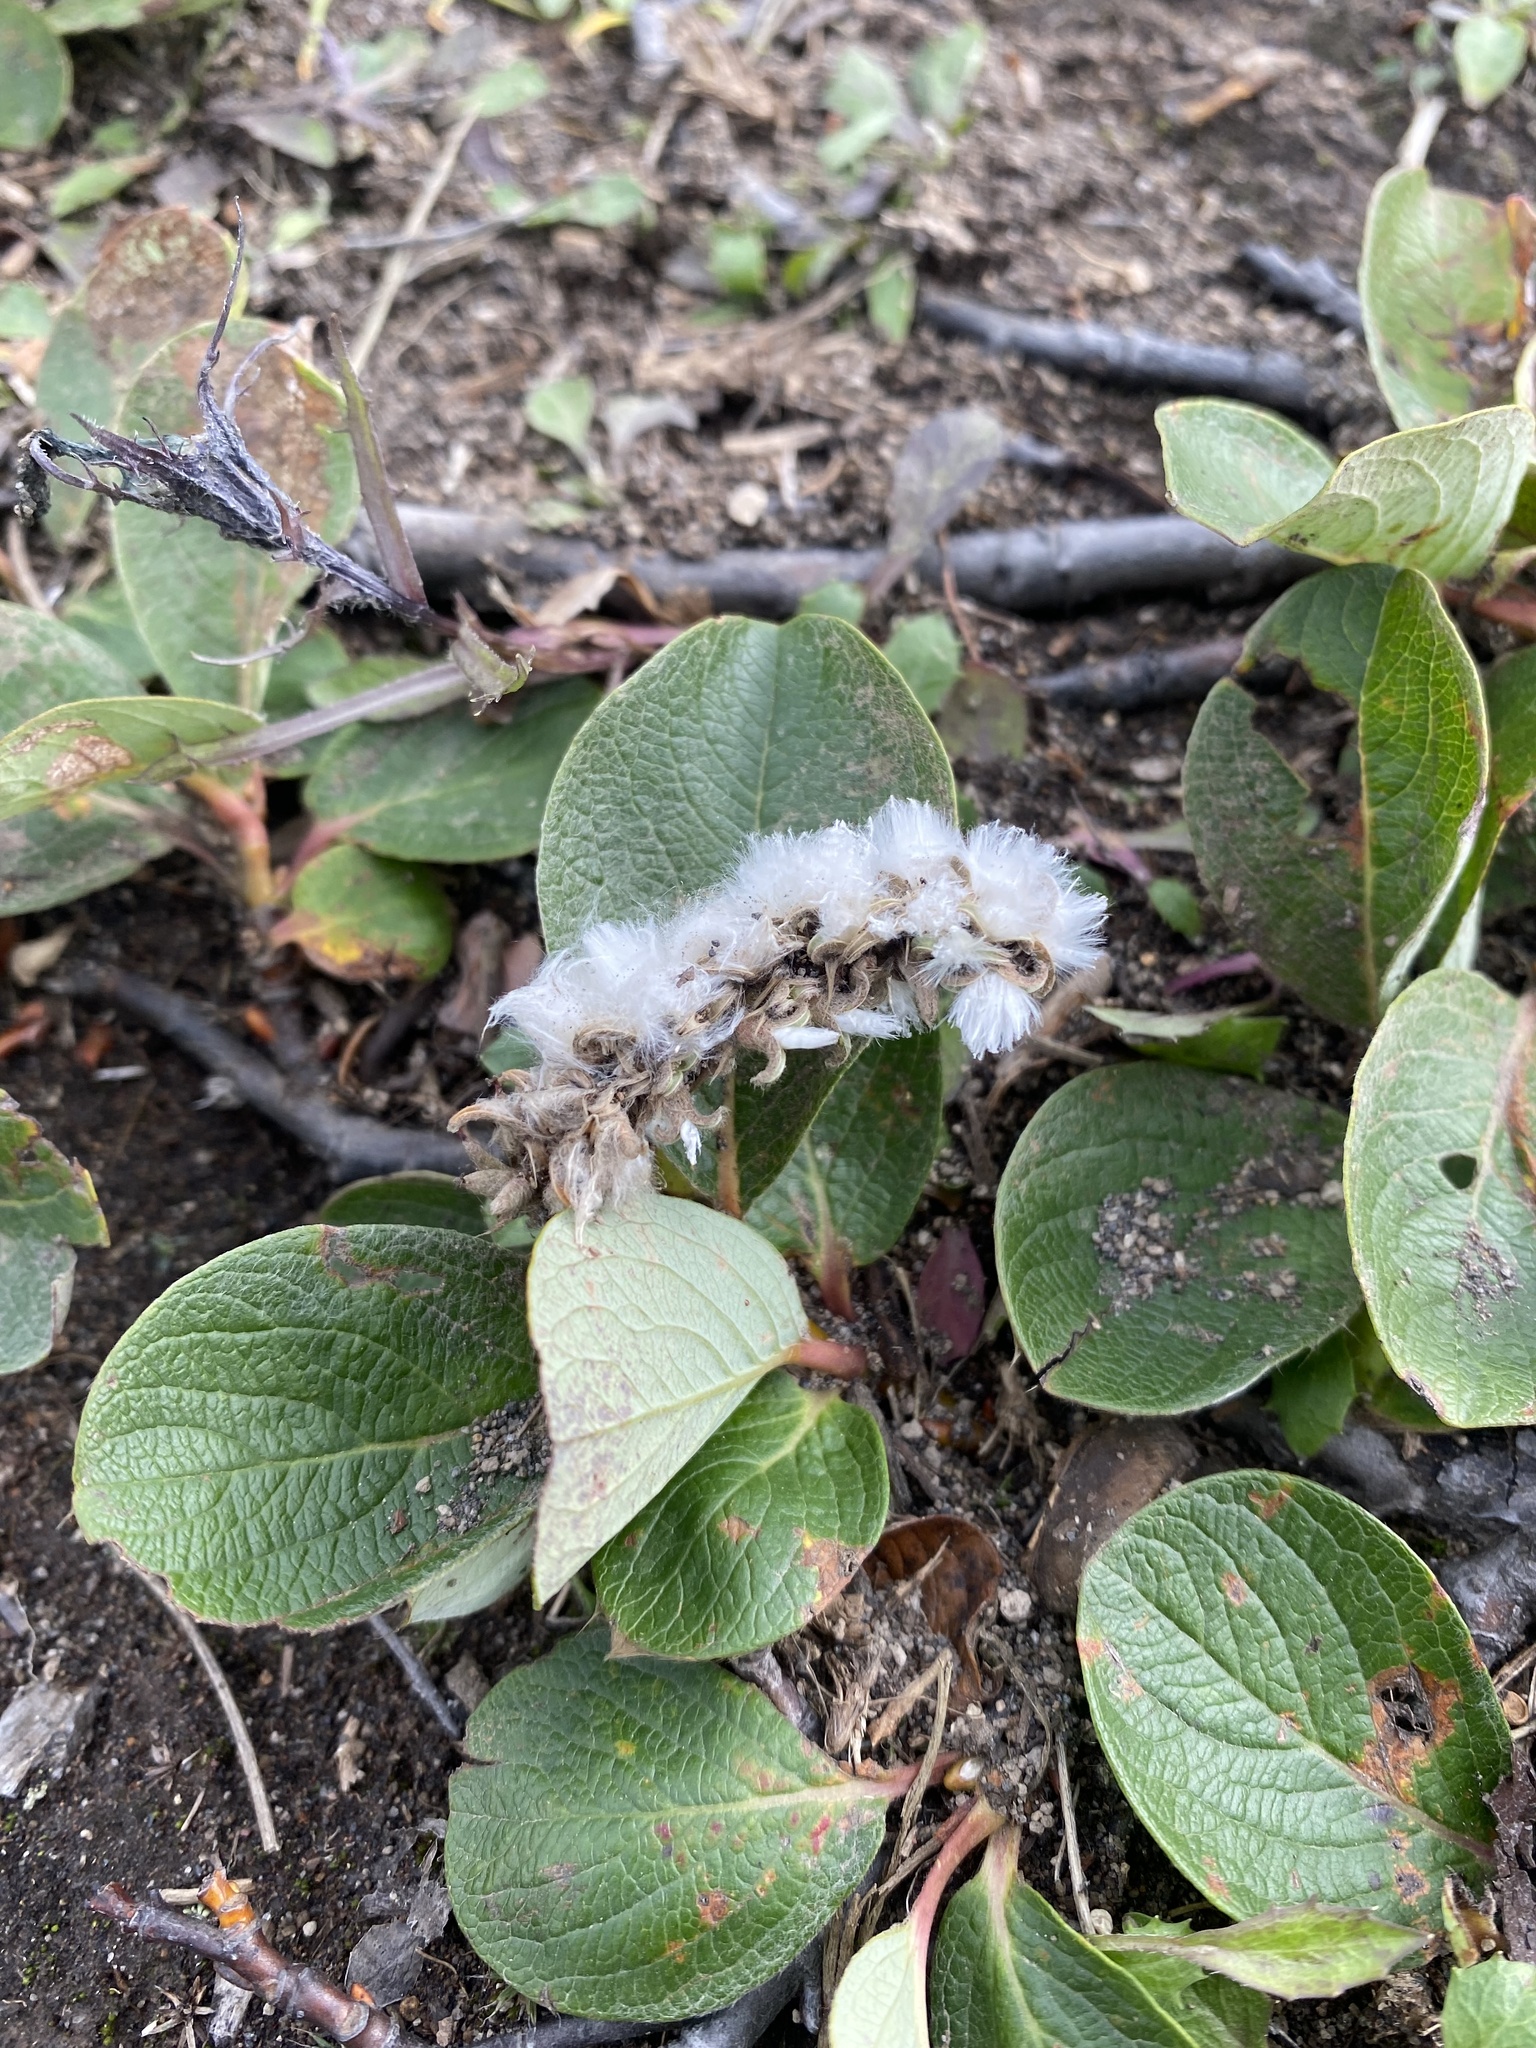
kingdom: Plantae
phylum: Tracheophyta
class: Magnoliopsida
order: Malpighiales
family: Salicaceae
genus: Salix
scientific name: Salix reticulata
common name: Net-leaved willow
